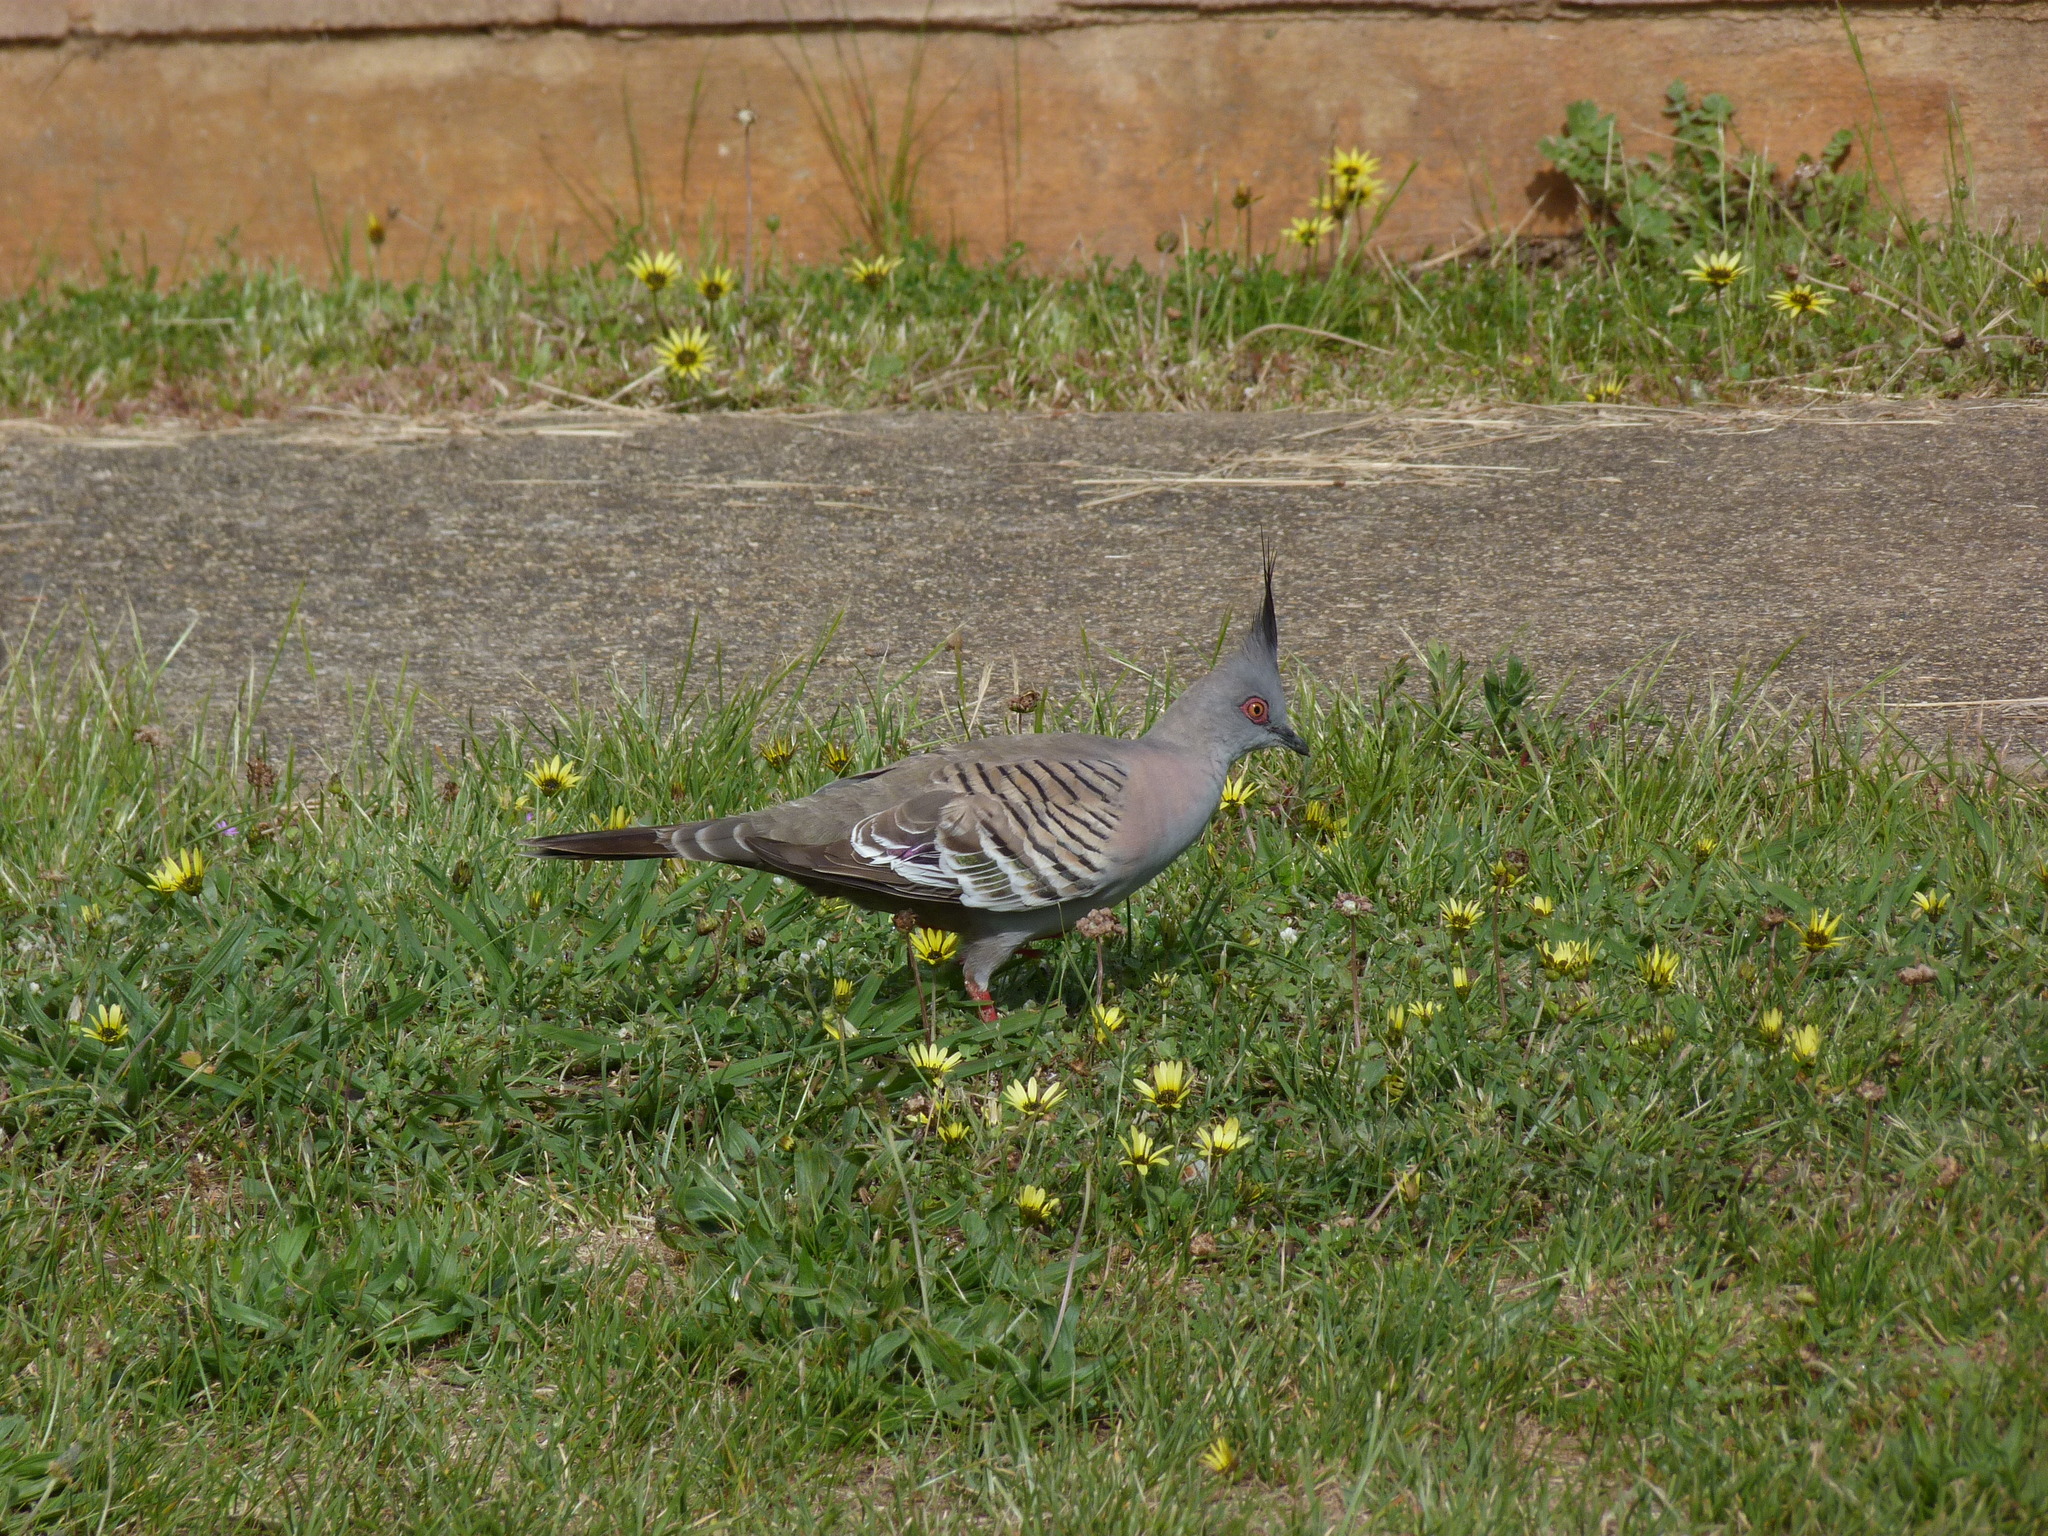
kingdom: Animalia
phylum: Chordata
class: Aves
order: Columbiformes
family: Columbidae
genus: Ocyphaps
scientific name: Ocyphaps lophotes
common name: Crested pigeon
